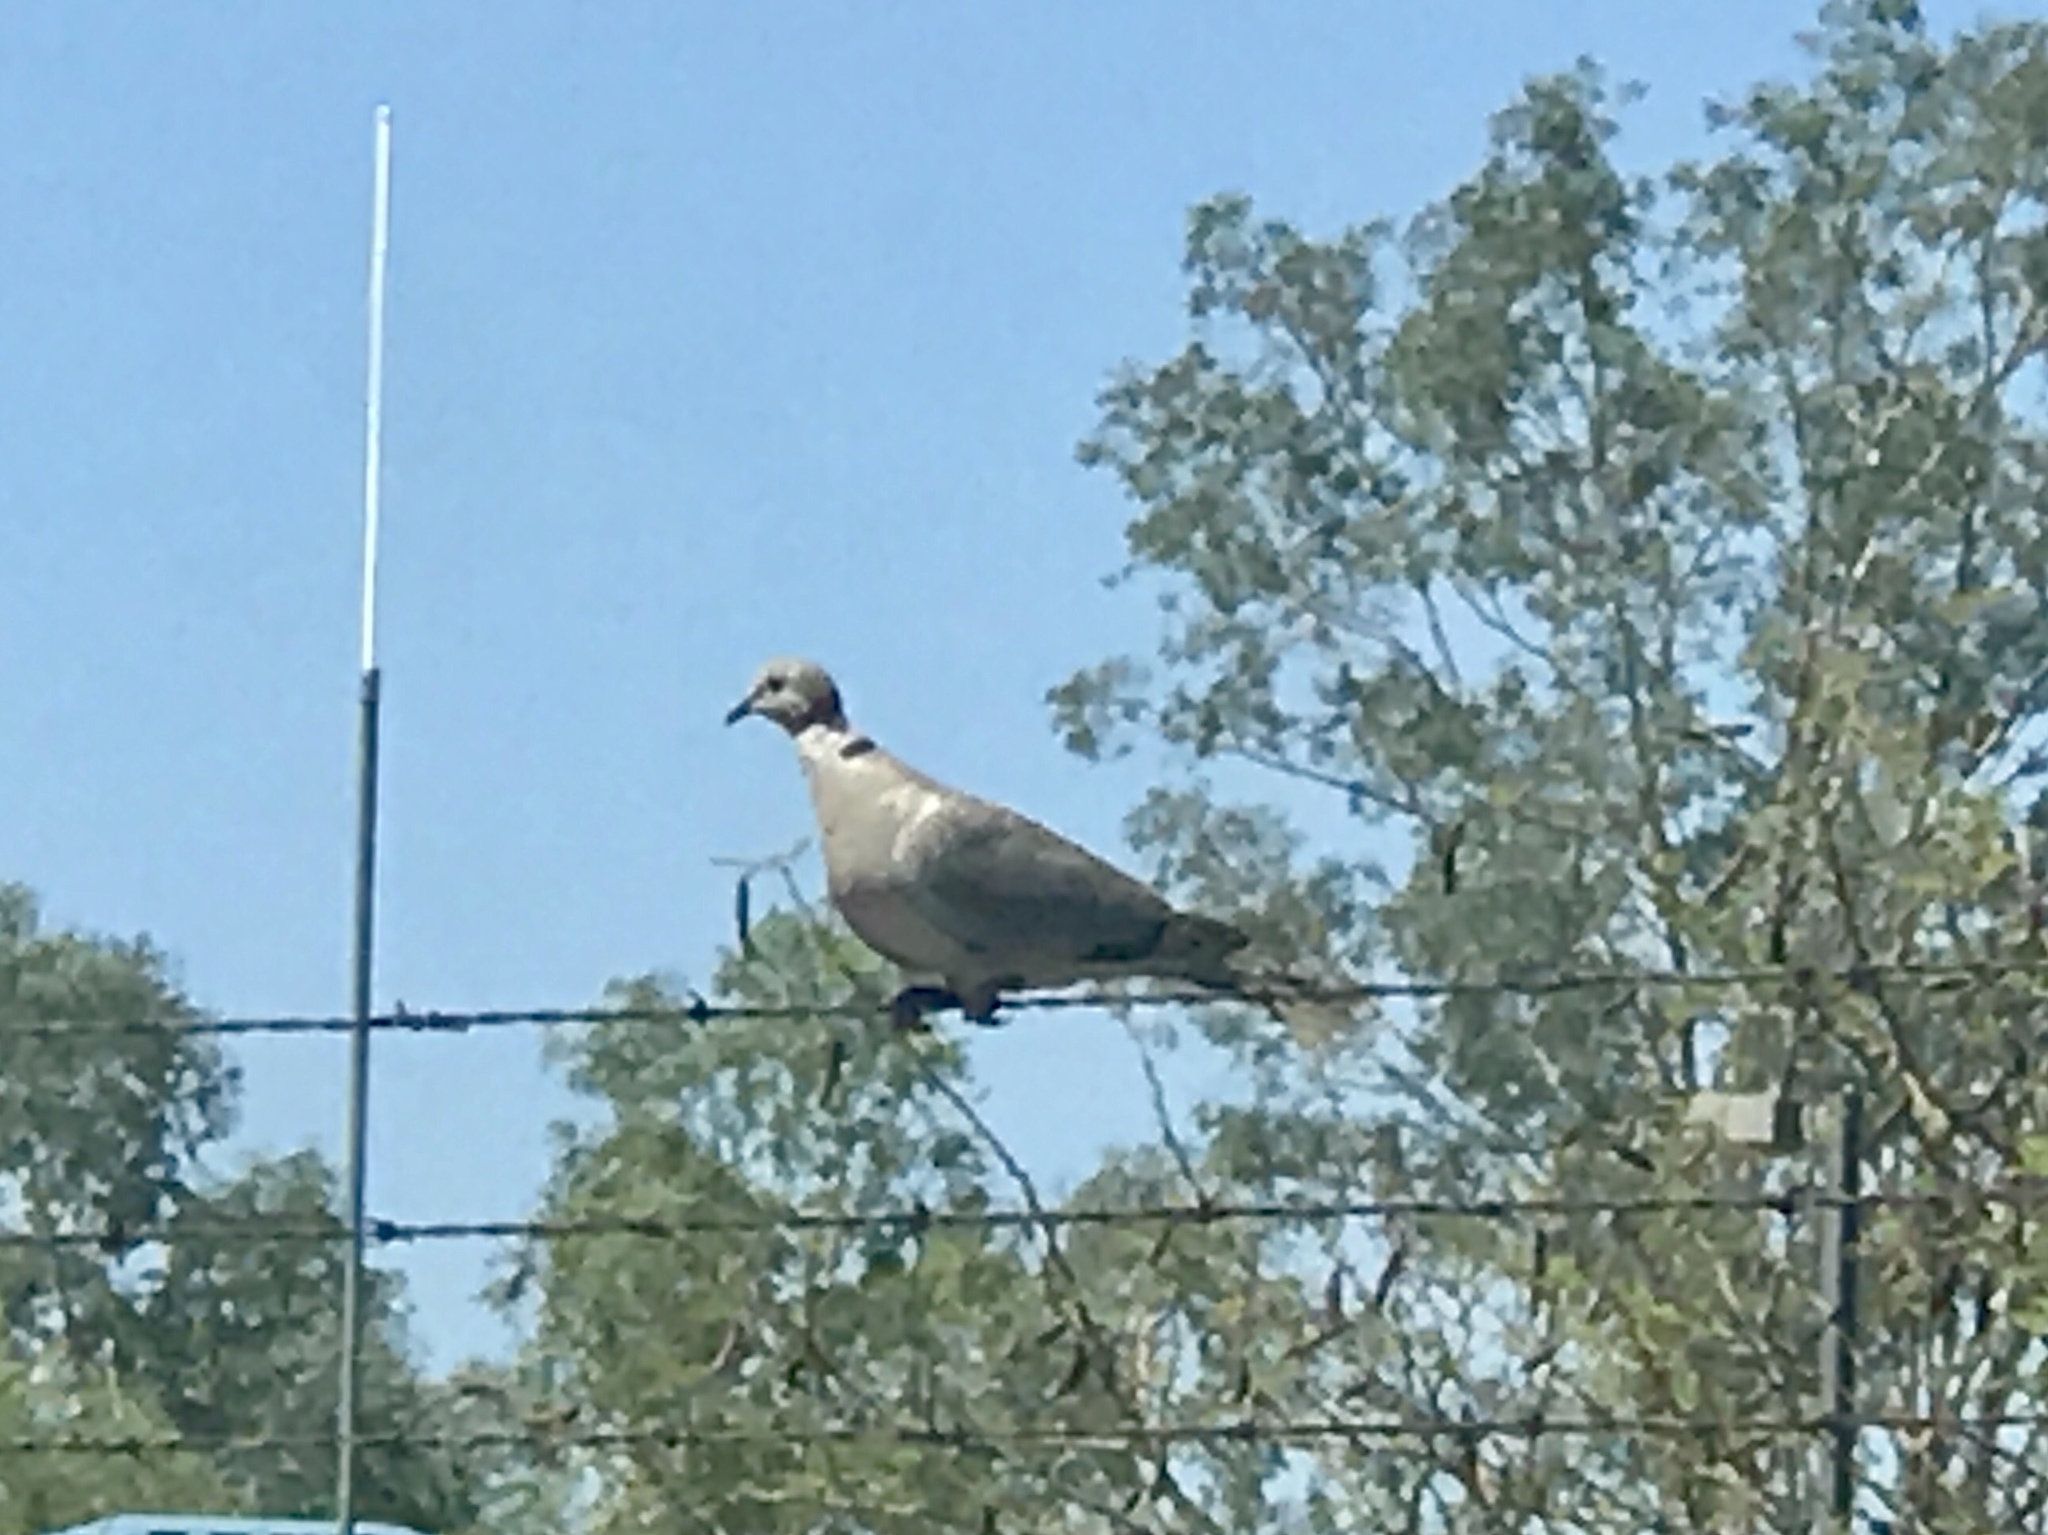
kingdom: Animalia
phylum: Chordata
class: Aves
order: Columbiformes
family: Columbidae
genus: Streptopelia
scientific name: Streptopelia decaocto
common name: Eurasian collared dove
